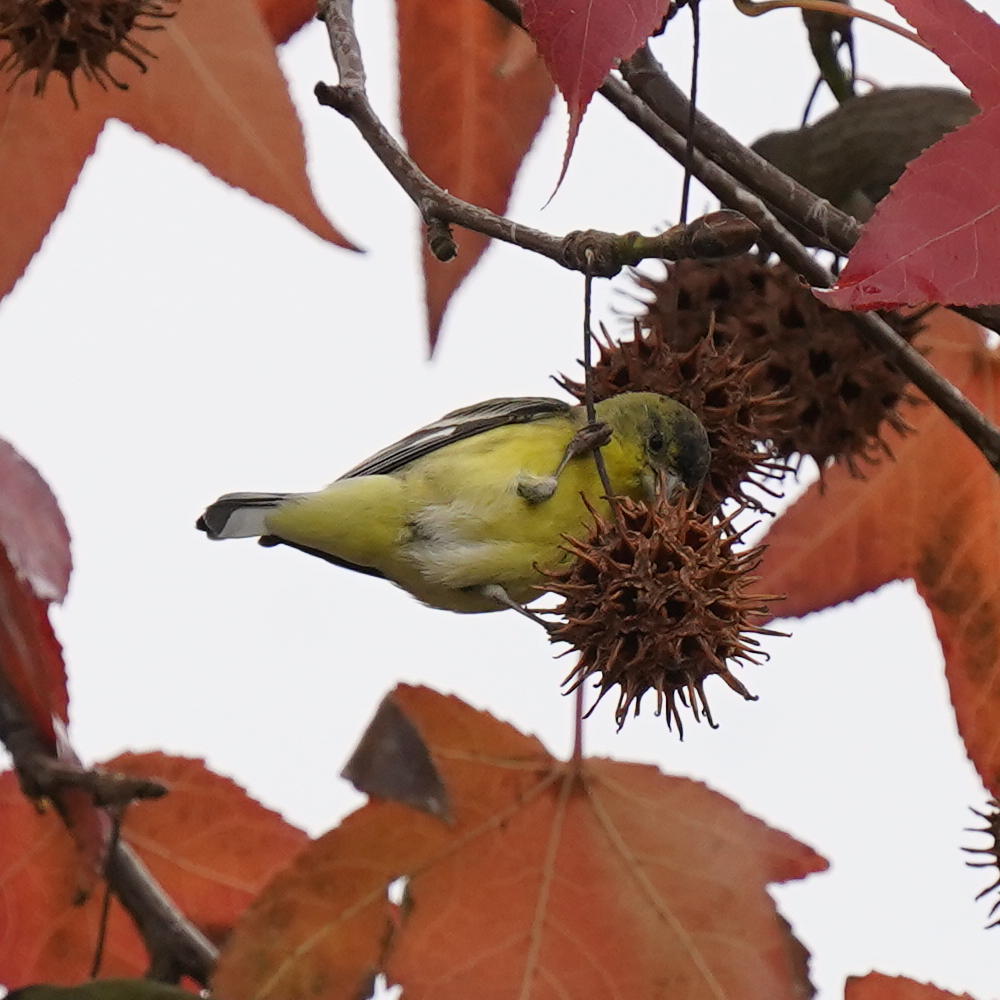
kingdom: Animalia
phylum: Chordata
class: Aves
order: Passeriformes
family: Fringillidae
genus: Spinus
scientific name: Spinus psaltria
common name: Lesser goldfinch
